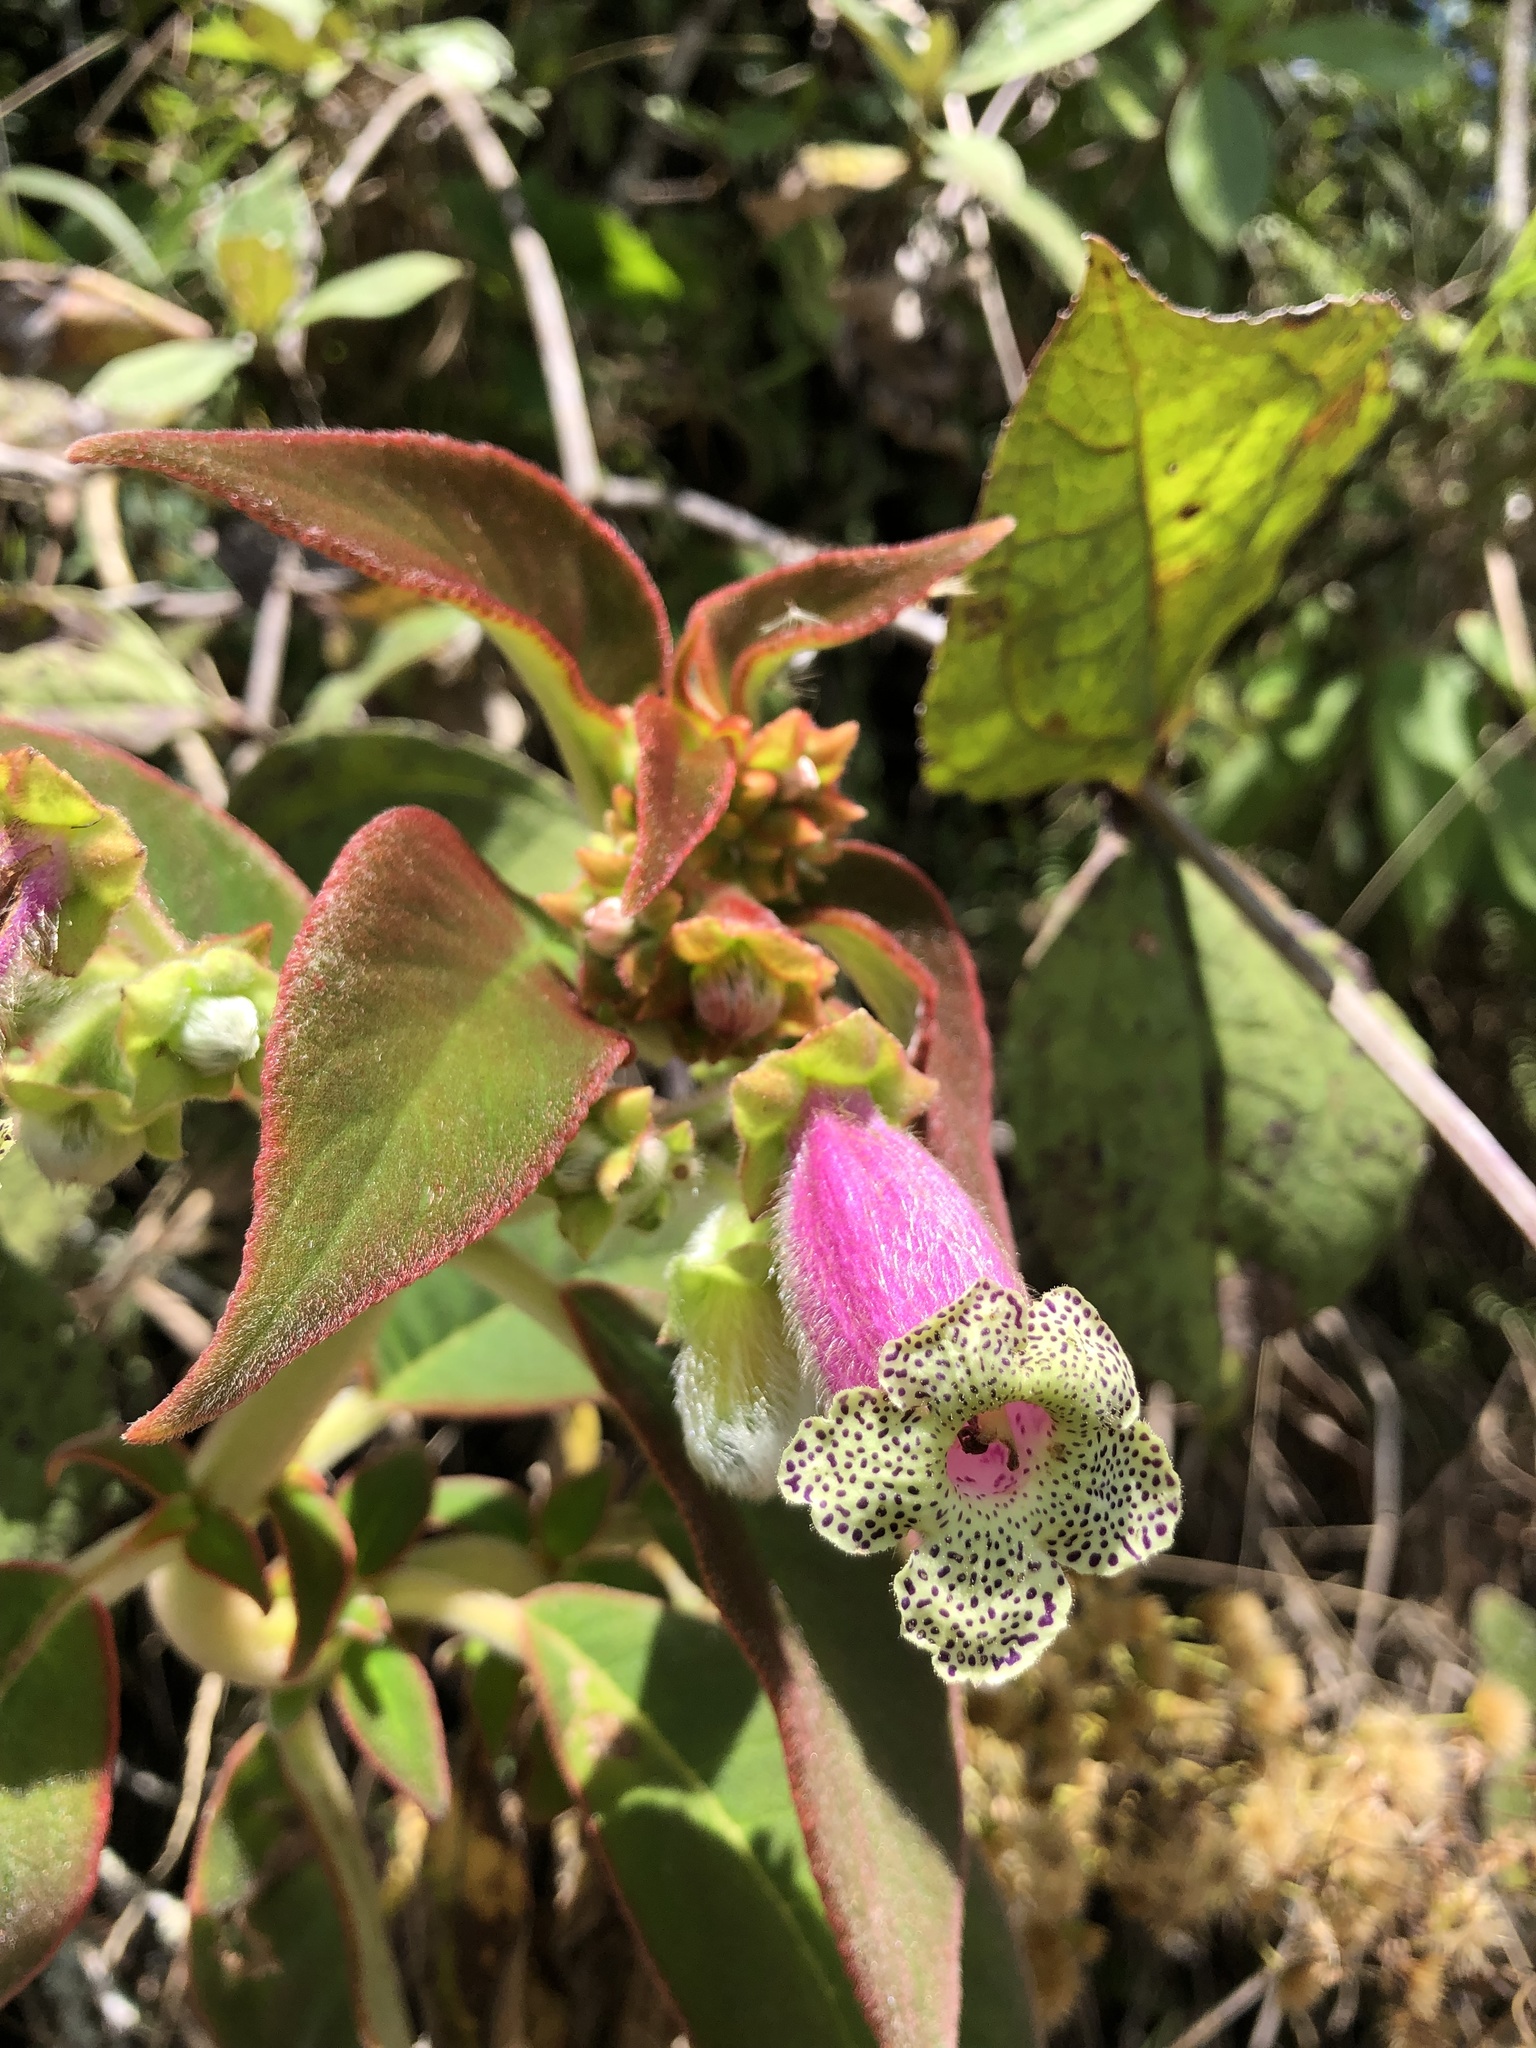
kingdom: Plantae
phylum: Tracheophyta
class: Magnoliopsida
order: Lamiales
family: Gesneriaceae
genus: Kohleria
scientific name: Kohleria warszewiczii
